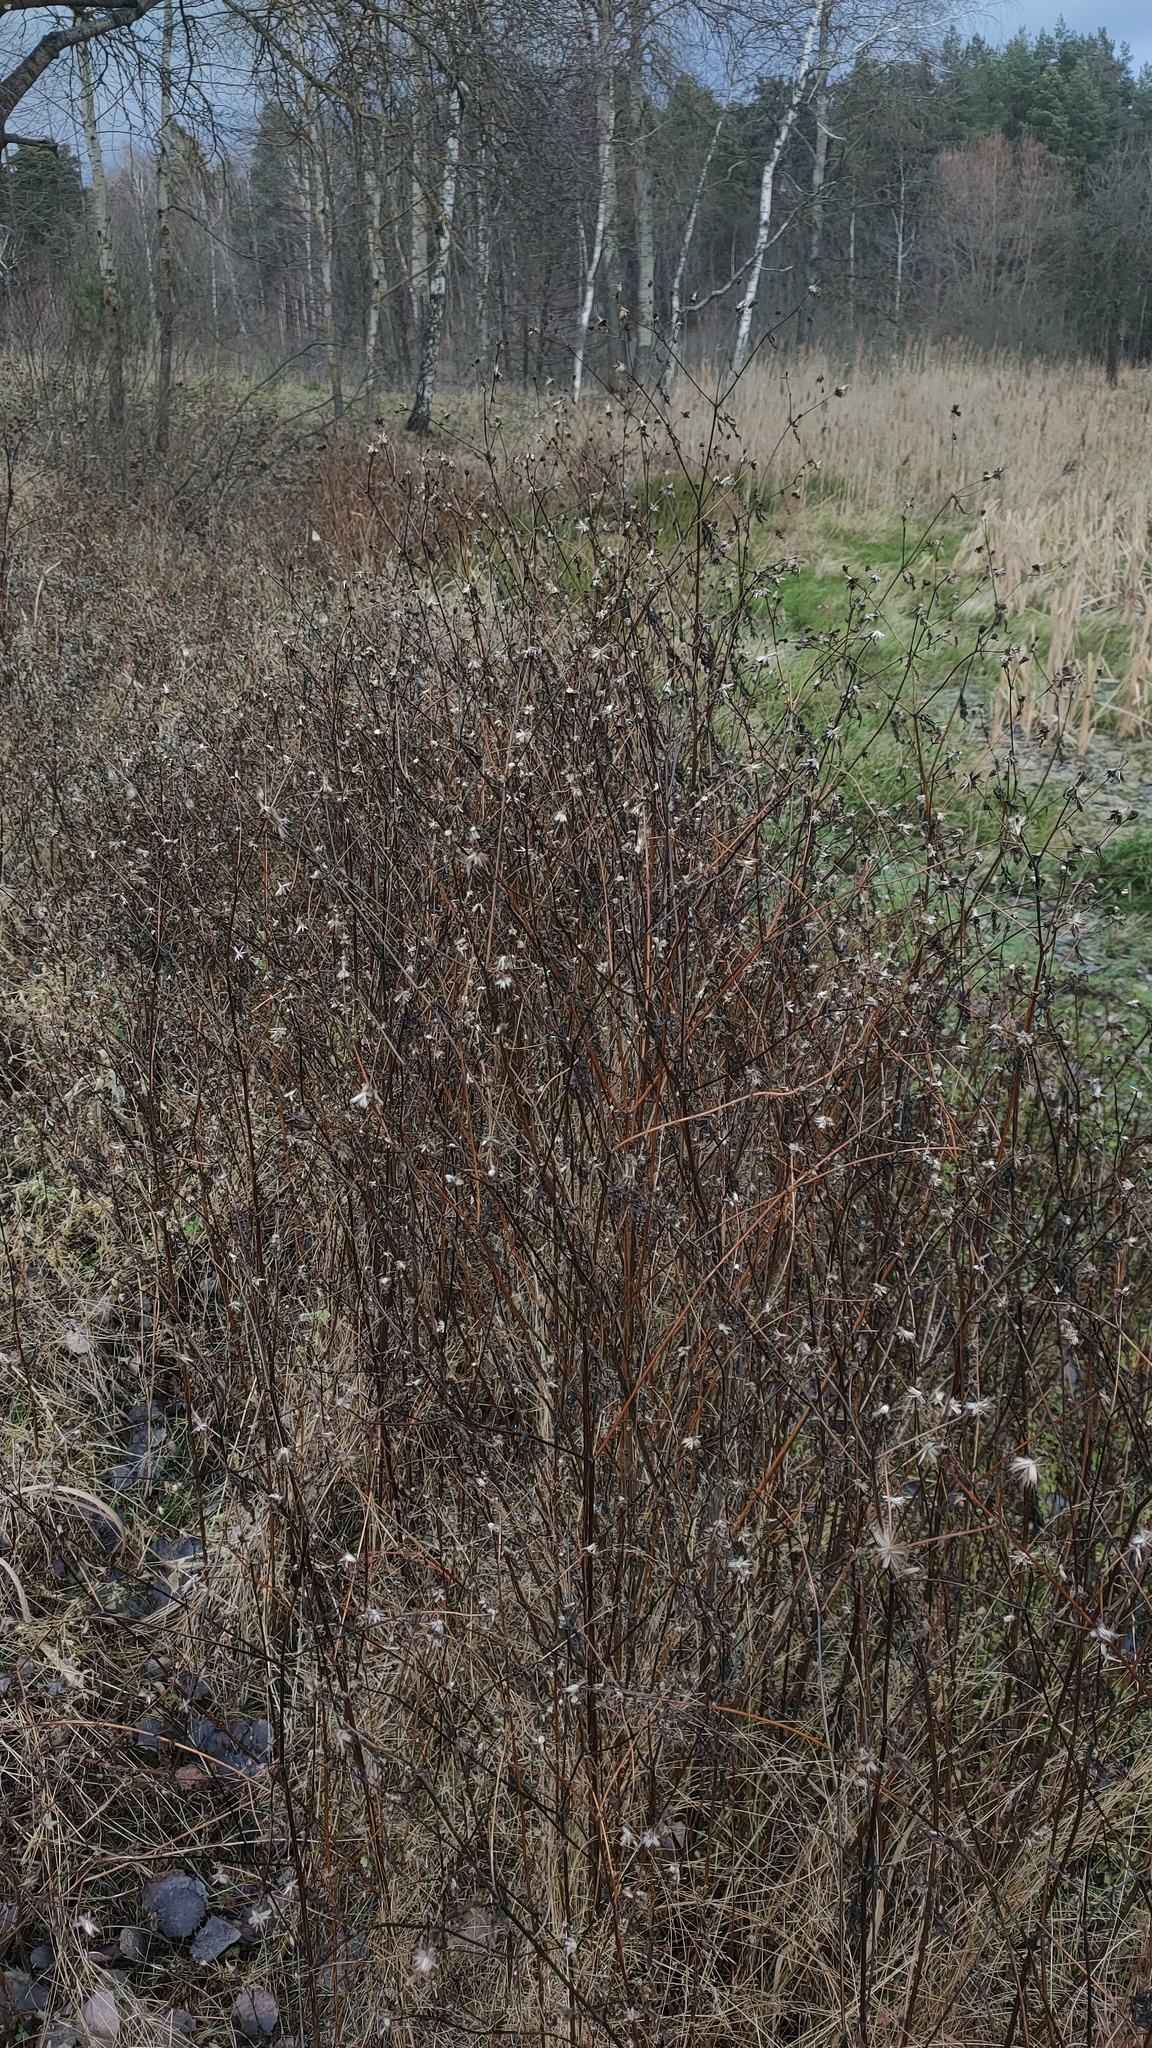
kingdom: Plantae
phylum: Tracheophyta
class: Magnoliopsida
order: Asterales
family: Asteraceae
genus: Bidens
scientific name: Bidens frondosa
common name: Beggarticks
